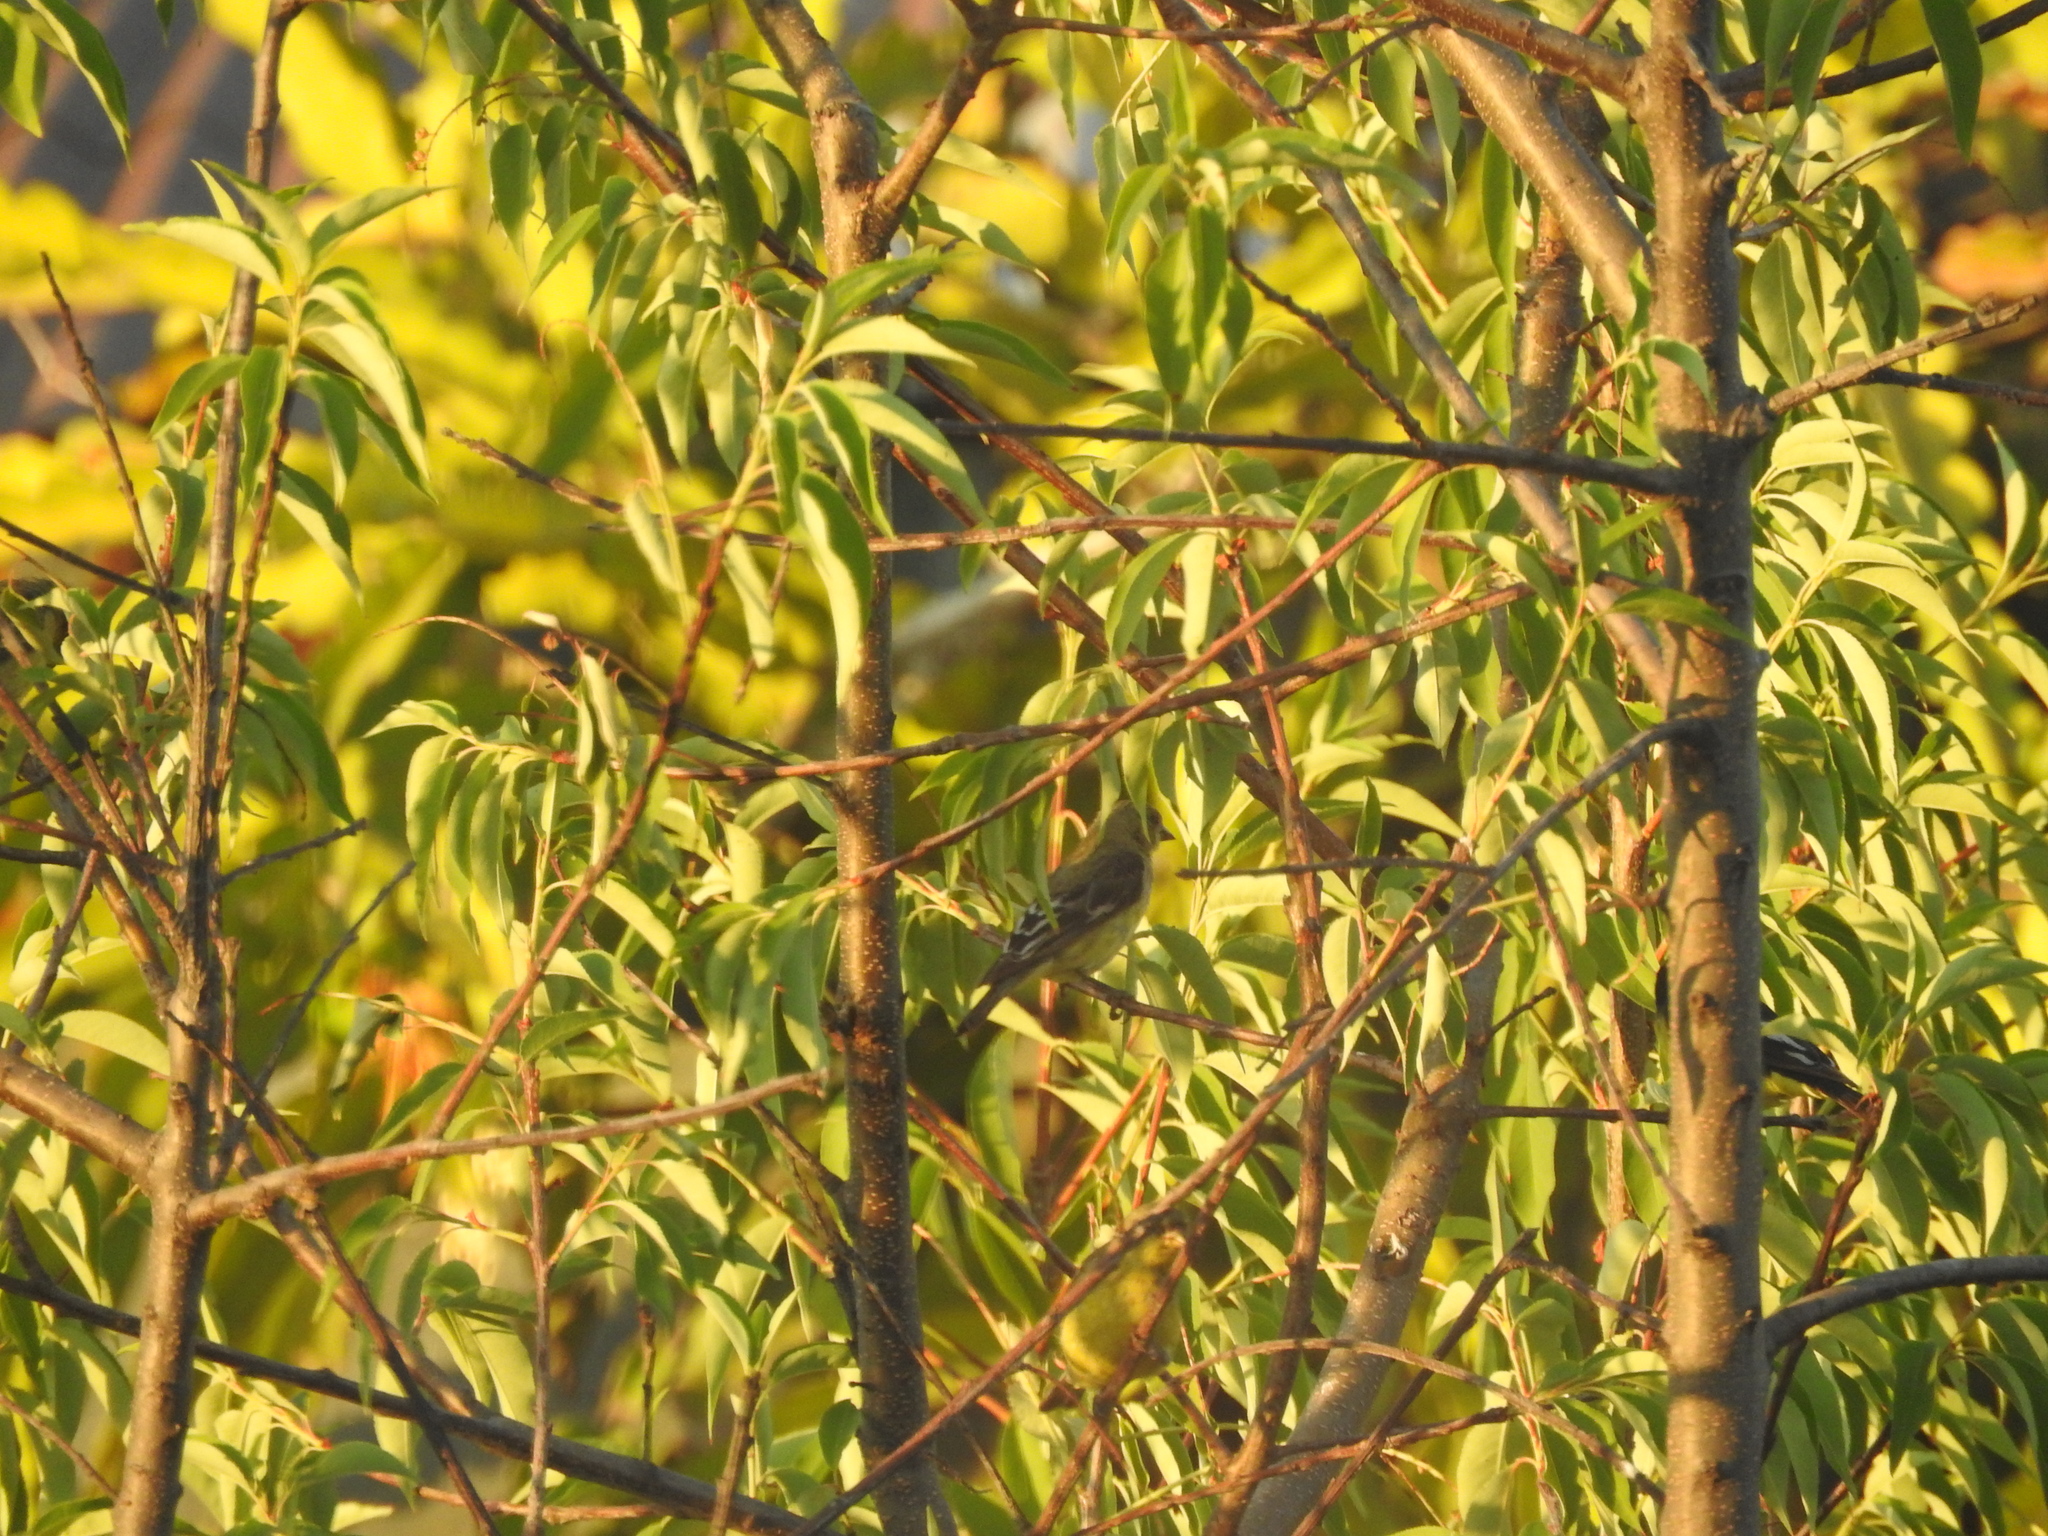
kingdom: Animalia
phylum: Chordata
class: Aves
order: Passeriformes
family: Fringillidae
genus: Spinus
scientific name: Spinus psaltria
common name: Lesser goldfinch
